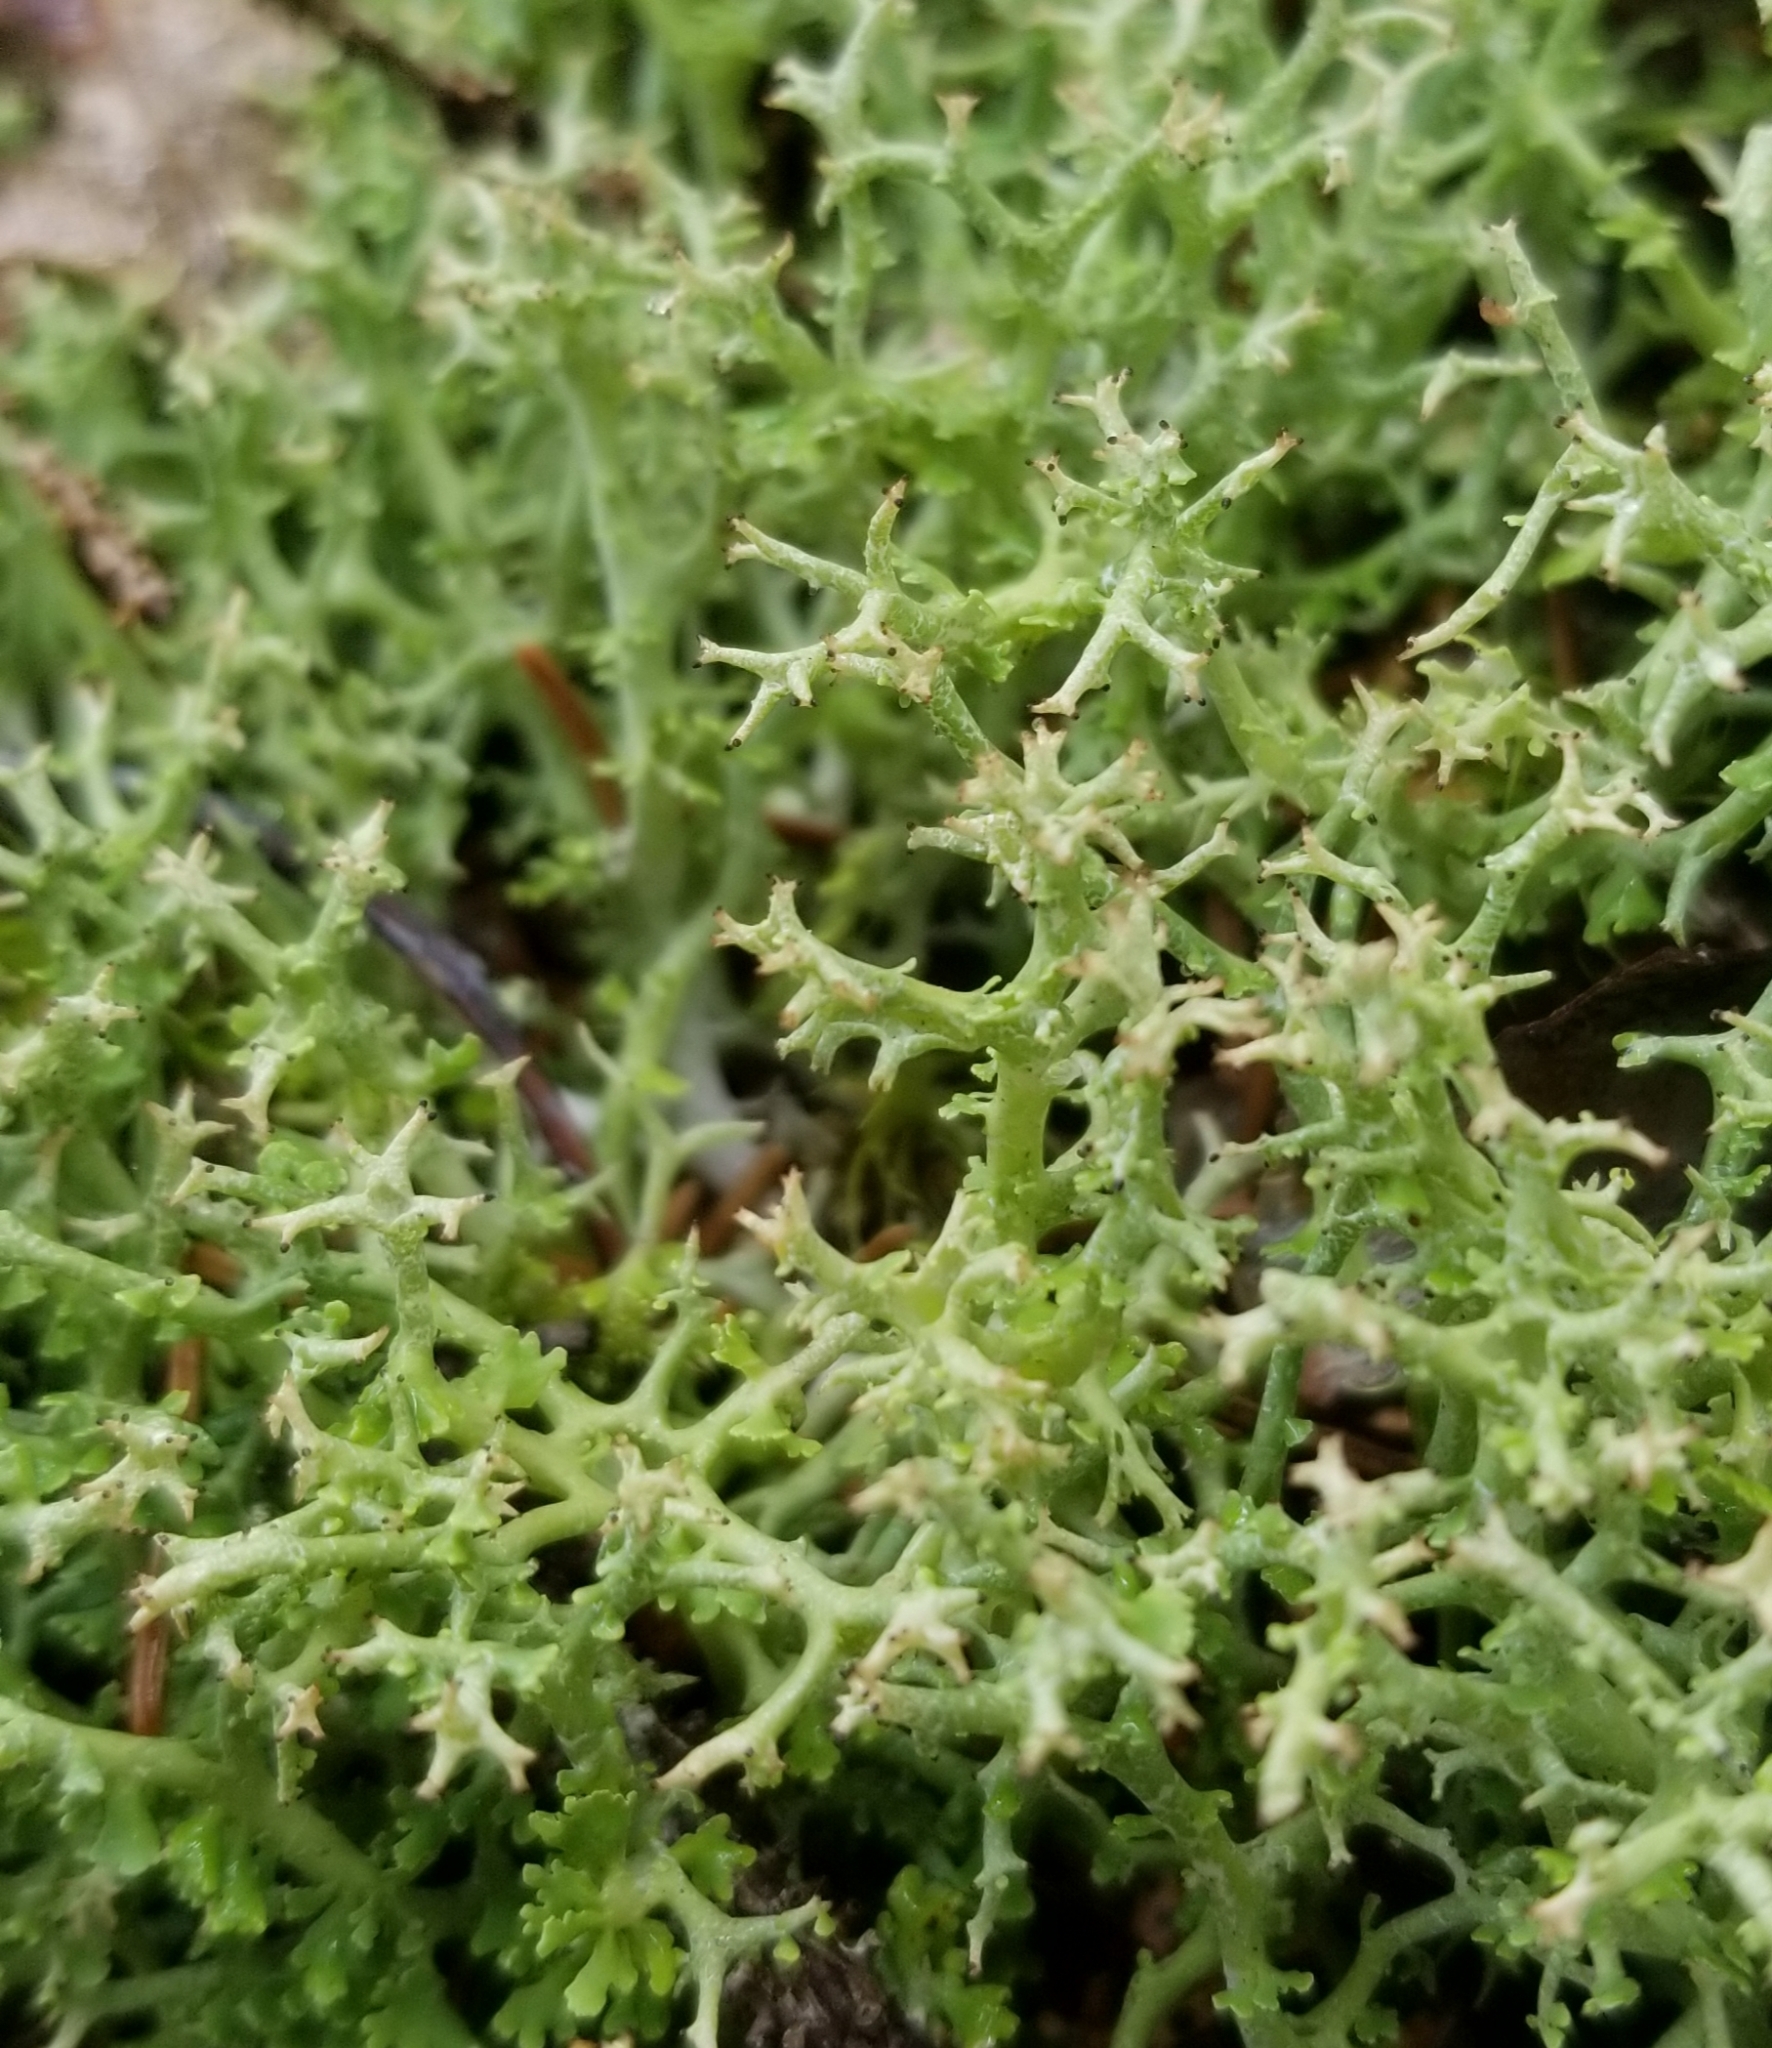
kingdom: Fungi
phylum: Ascomycota
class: Lecanoromycetes
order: Lecanorales
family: Cladoniaceae
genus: Cladonia
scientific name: Cladonia uncialis
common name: Thorn lichen
